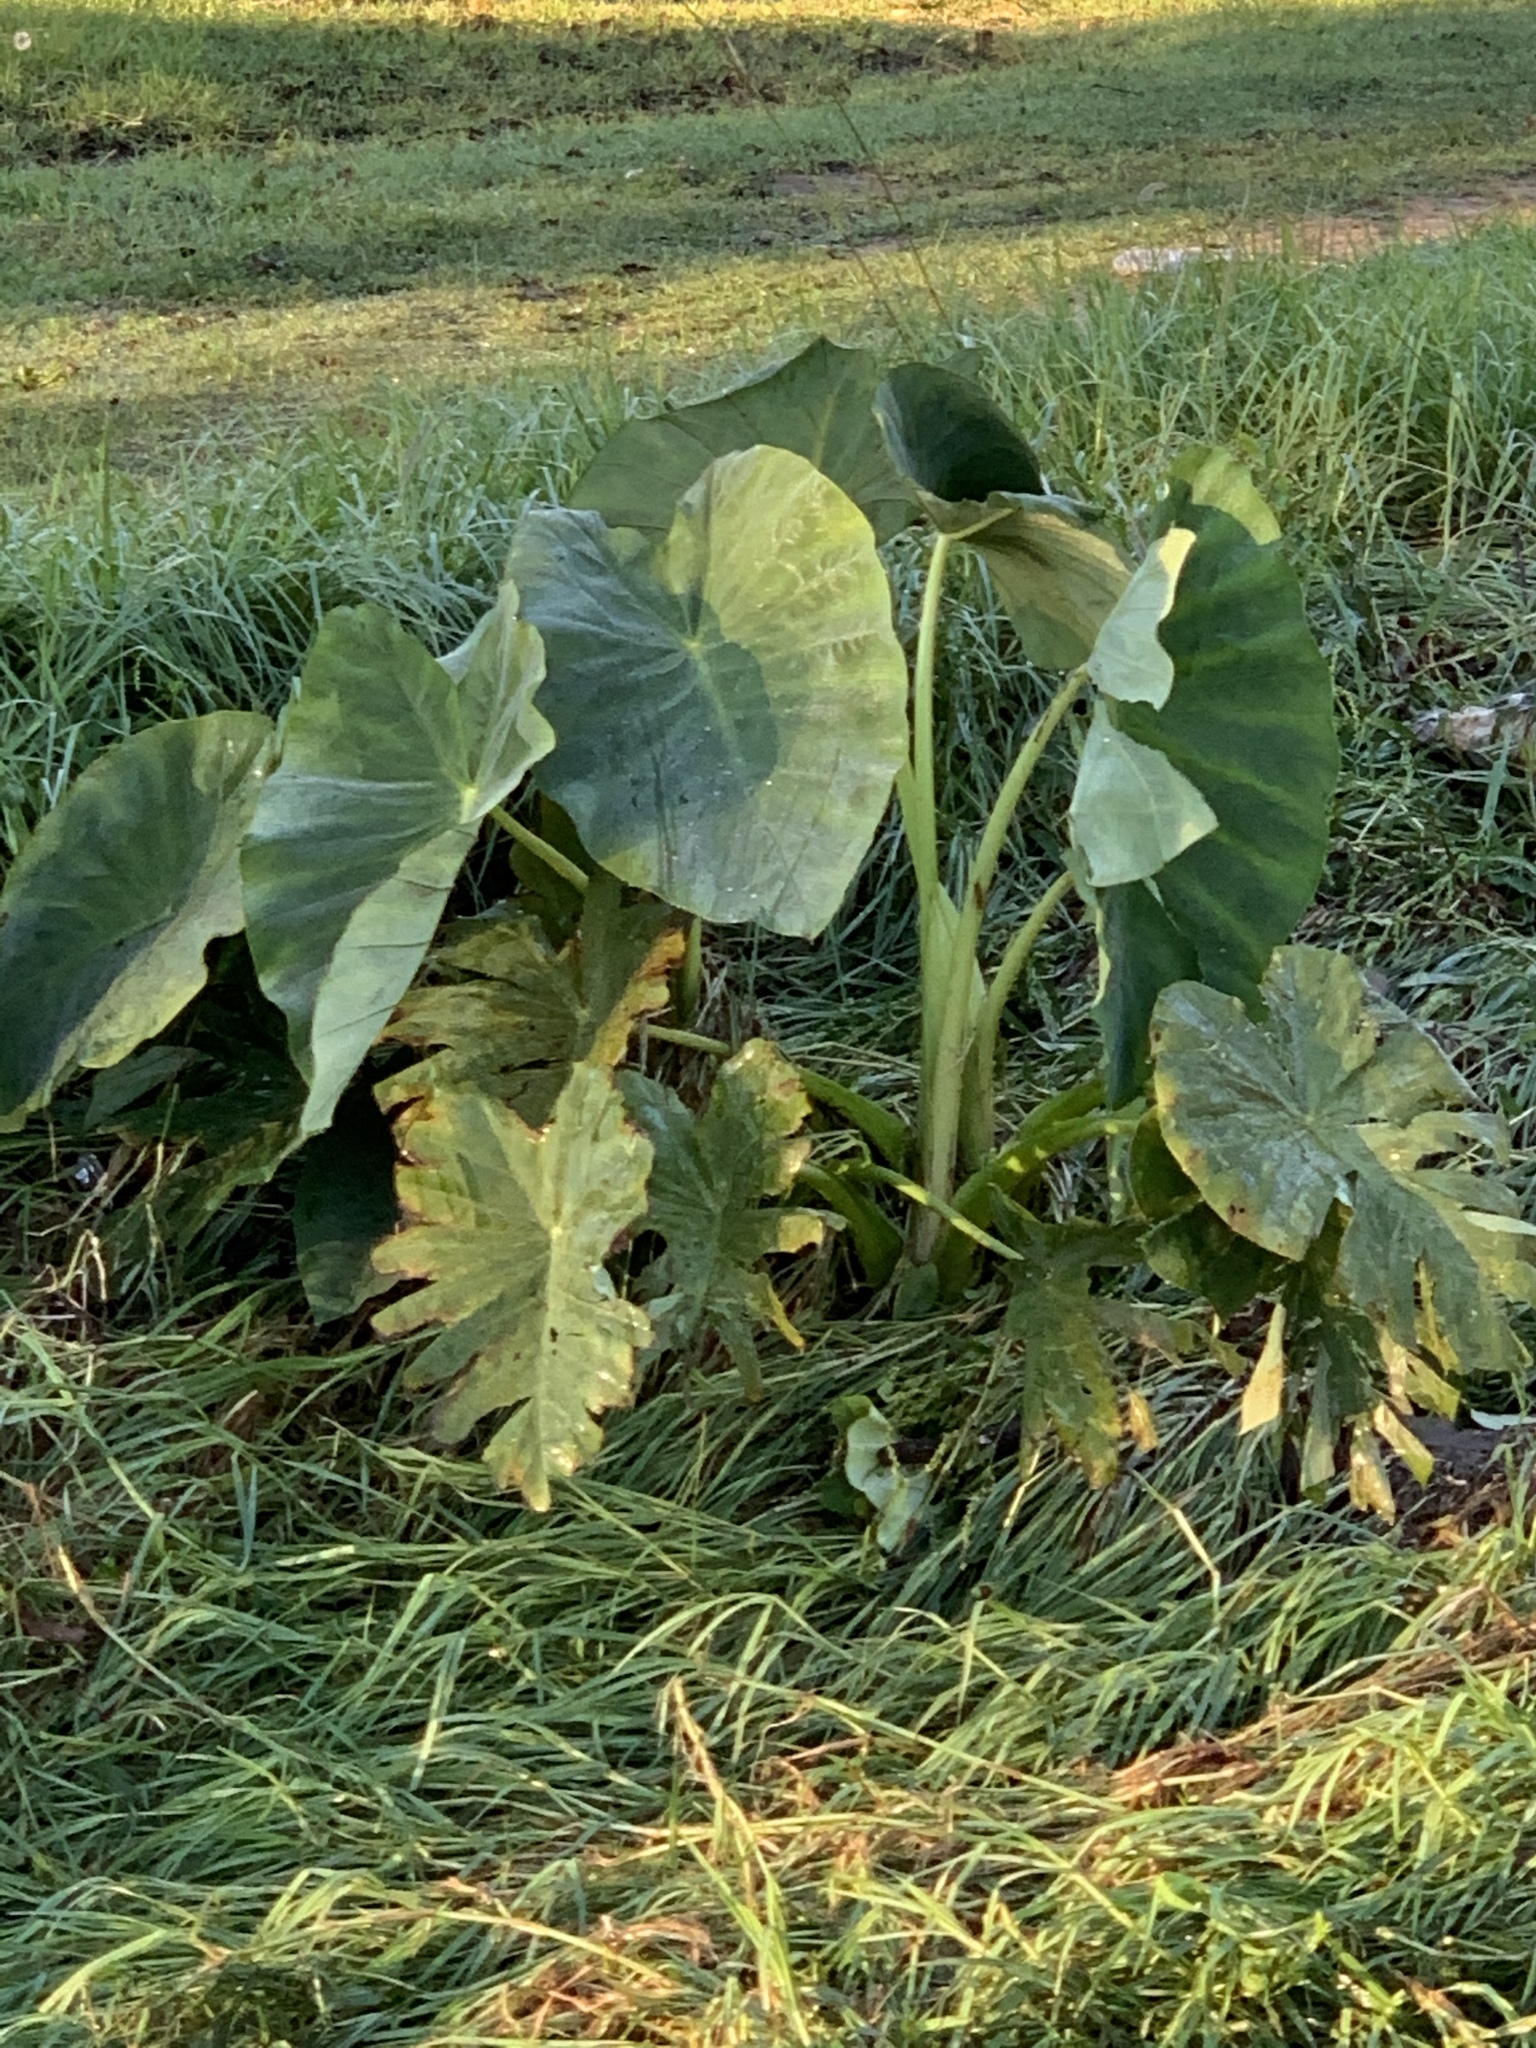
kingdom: Plantae
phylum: Tracheophyta
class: Liliopsida
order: Alismatales
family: Araceae
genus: Colocasia
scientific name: Colocasia esculenta
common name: Taro
